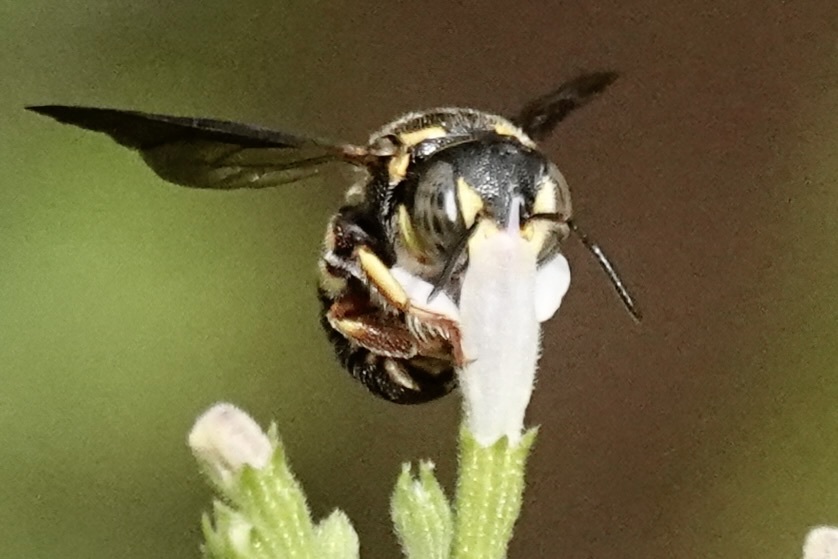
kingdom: Animalia
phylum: Arthropoda
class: Insecta
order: Hymenoptera
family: Megachilidae
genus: Anthidiellum
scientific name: Anthidiellum notatum
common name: Northern rotund-resin bee
